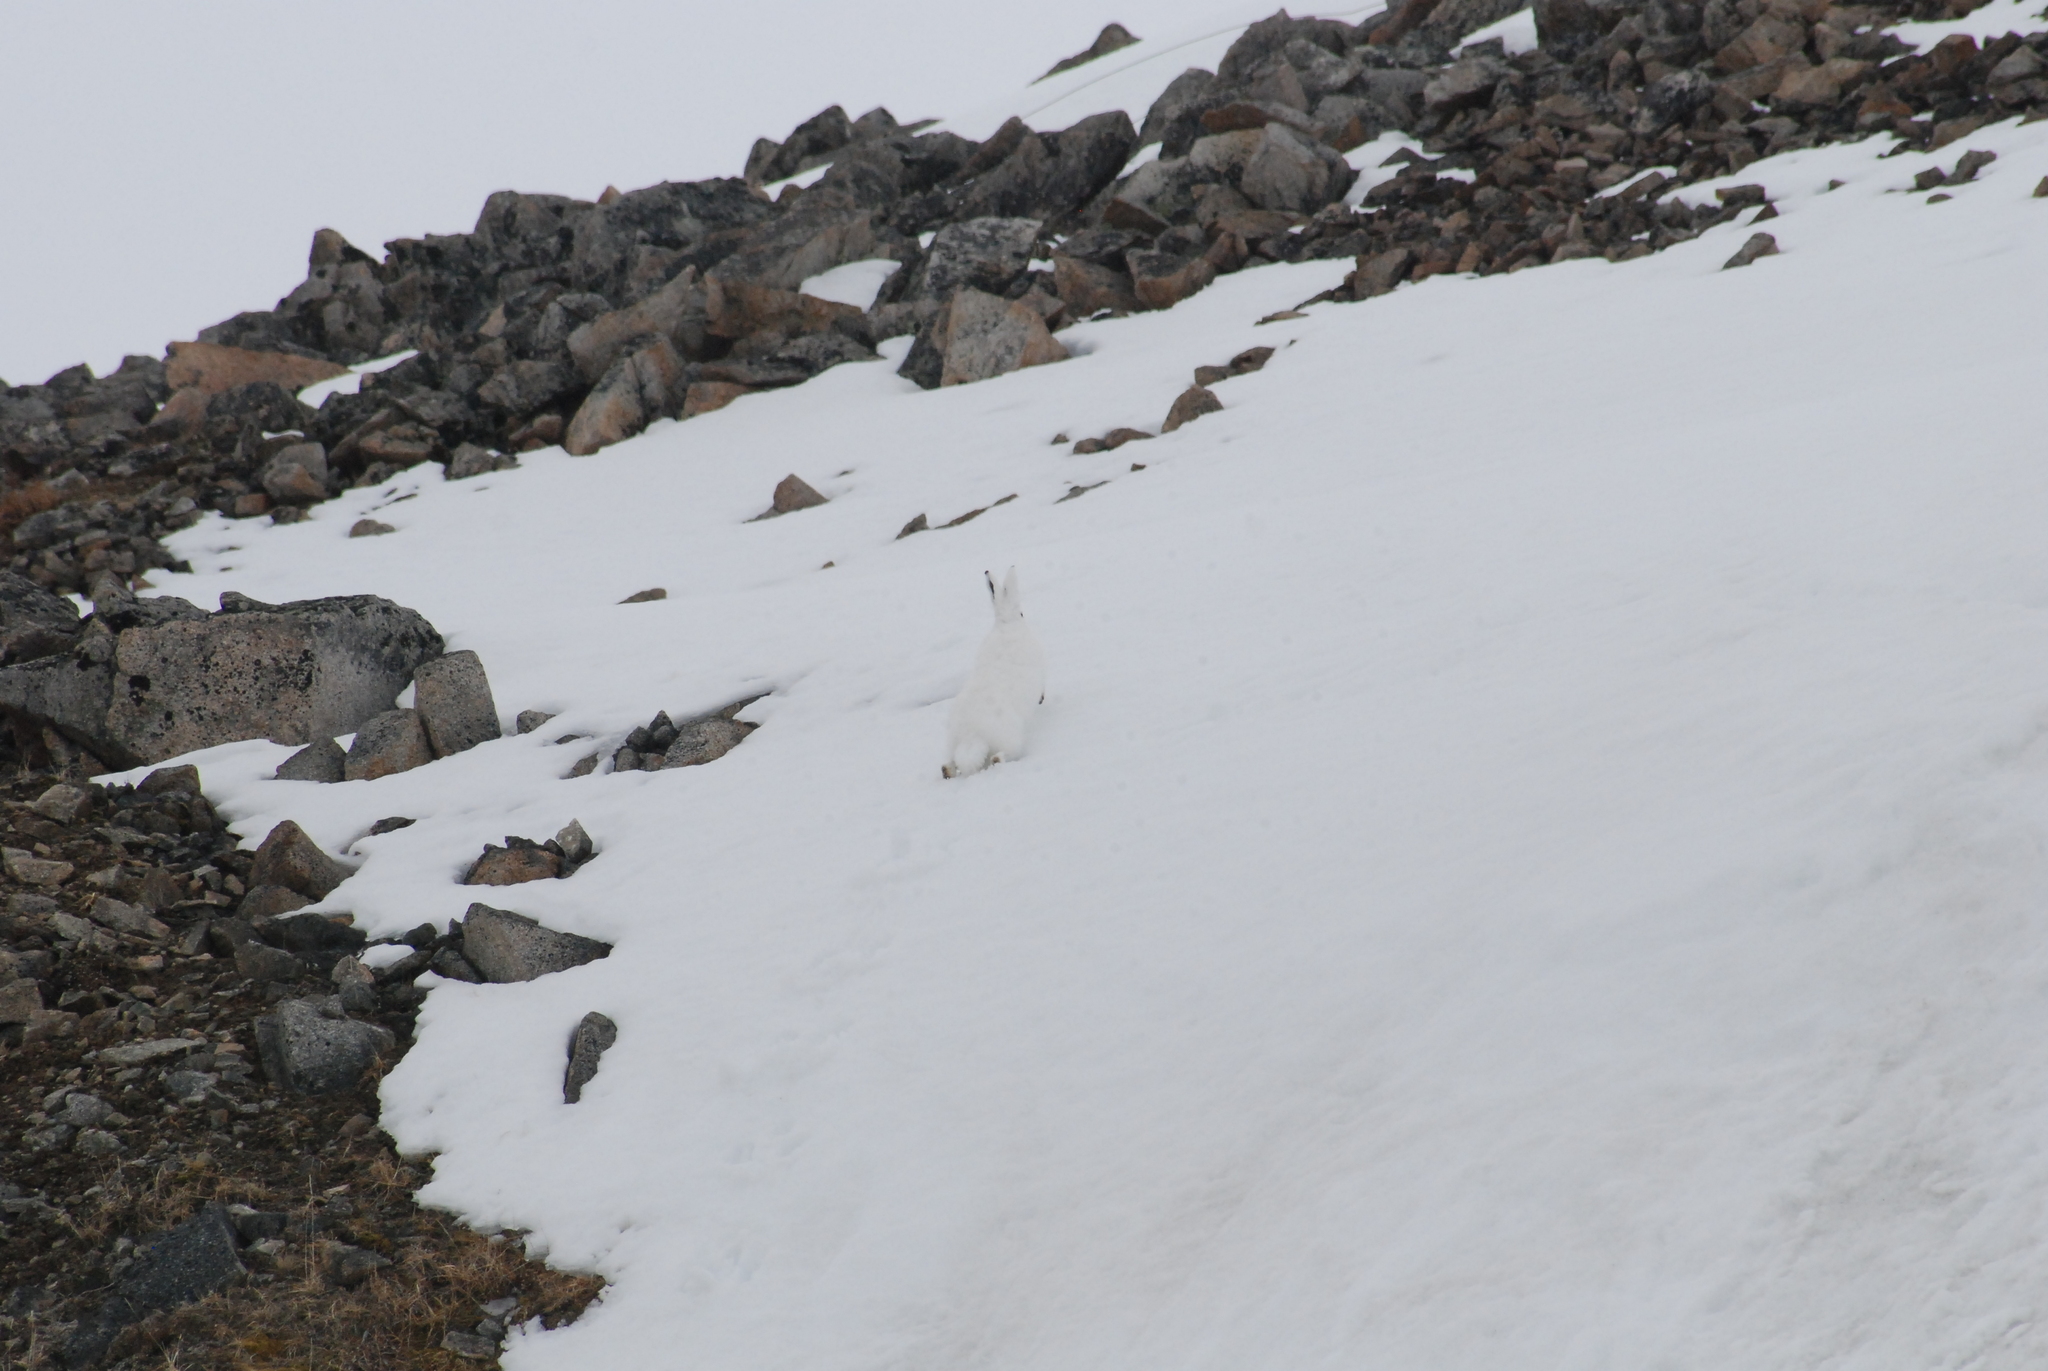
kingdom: Animalia
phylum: Chordata
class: Mammalia
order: Lagomorpha
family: Leporidae
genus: Lepus
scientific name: Lepus timidus
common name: Mountain hare
